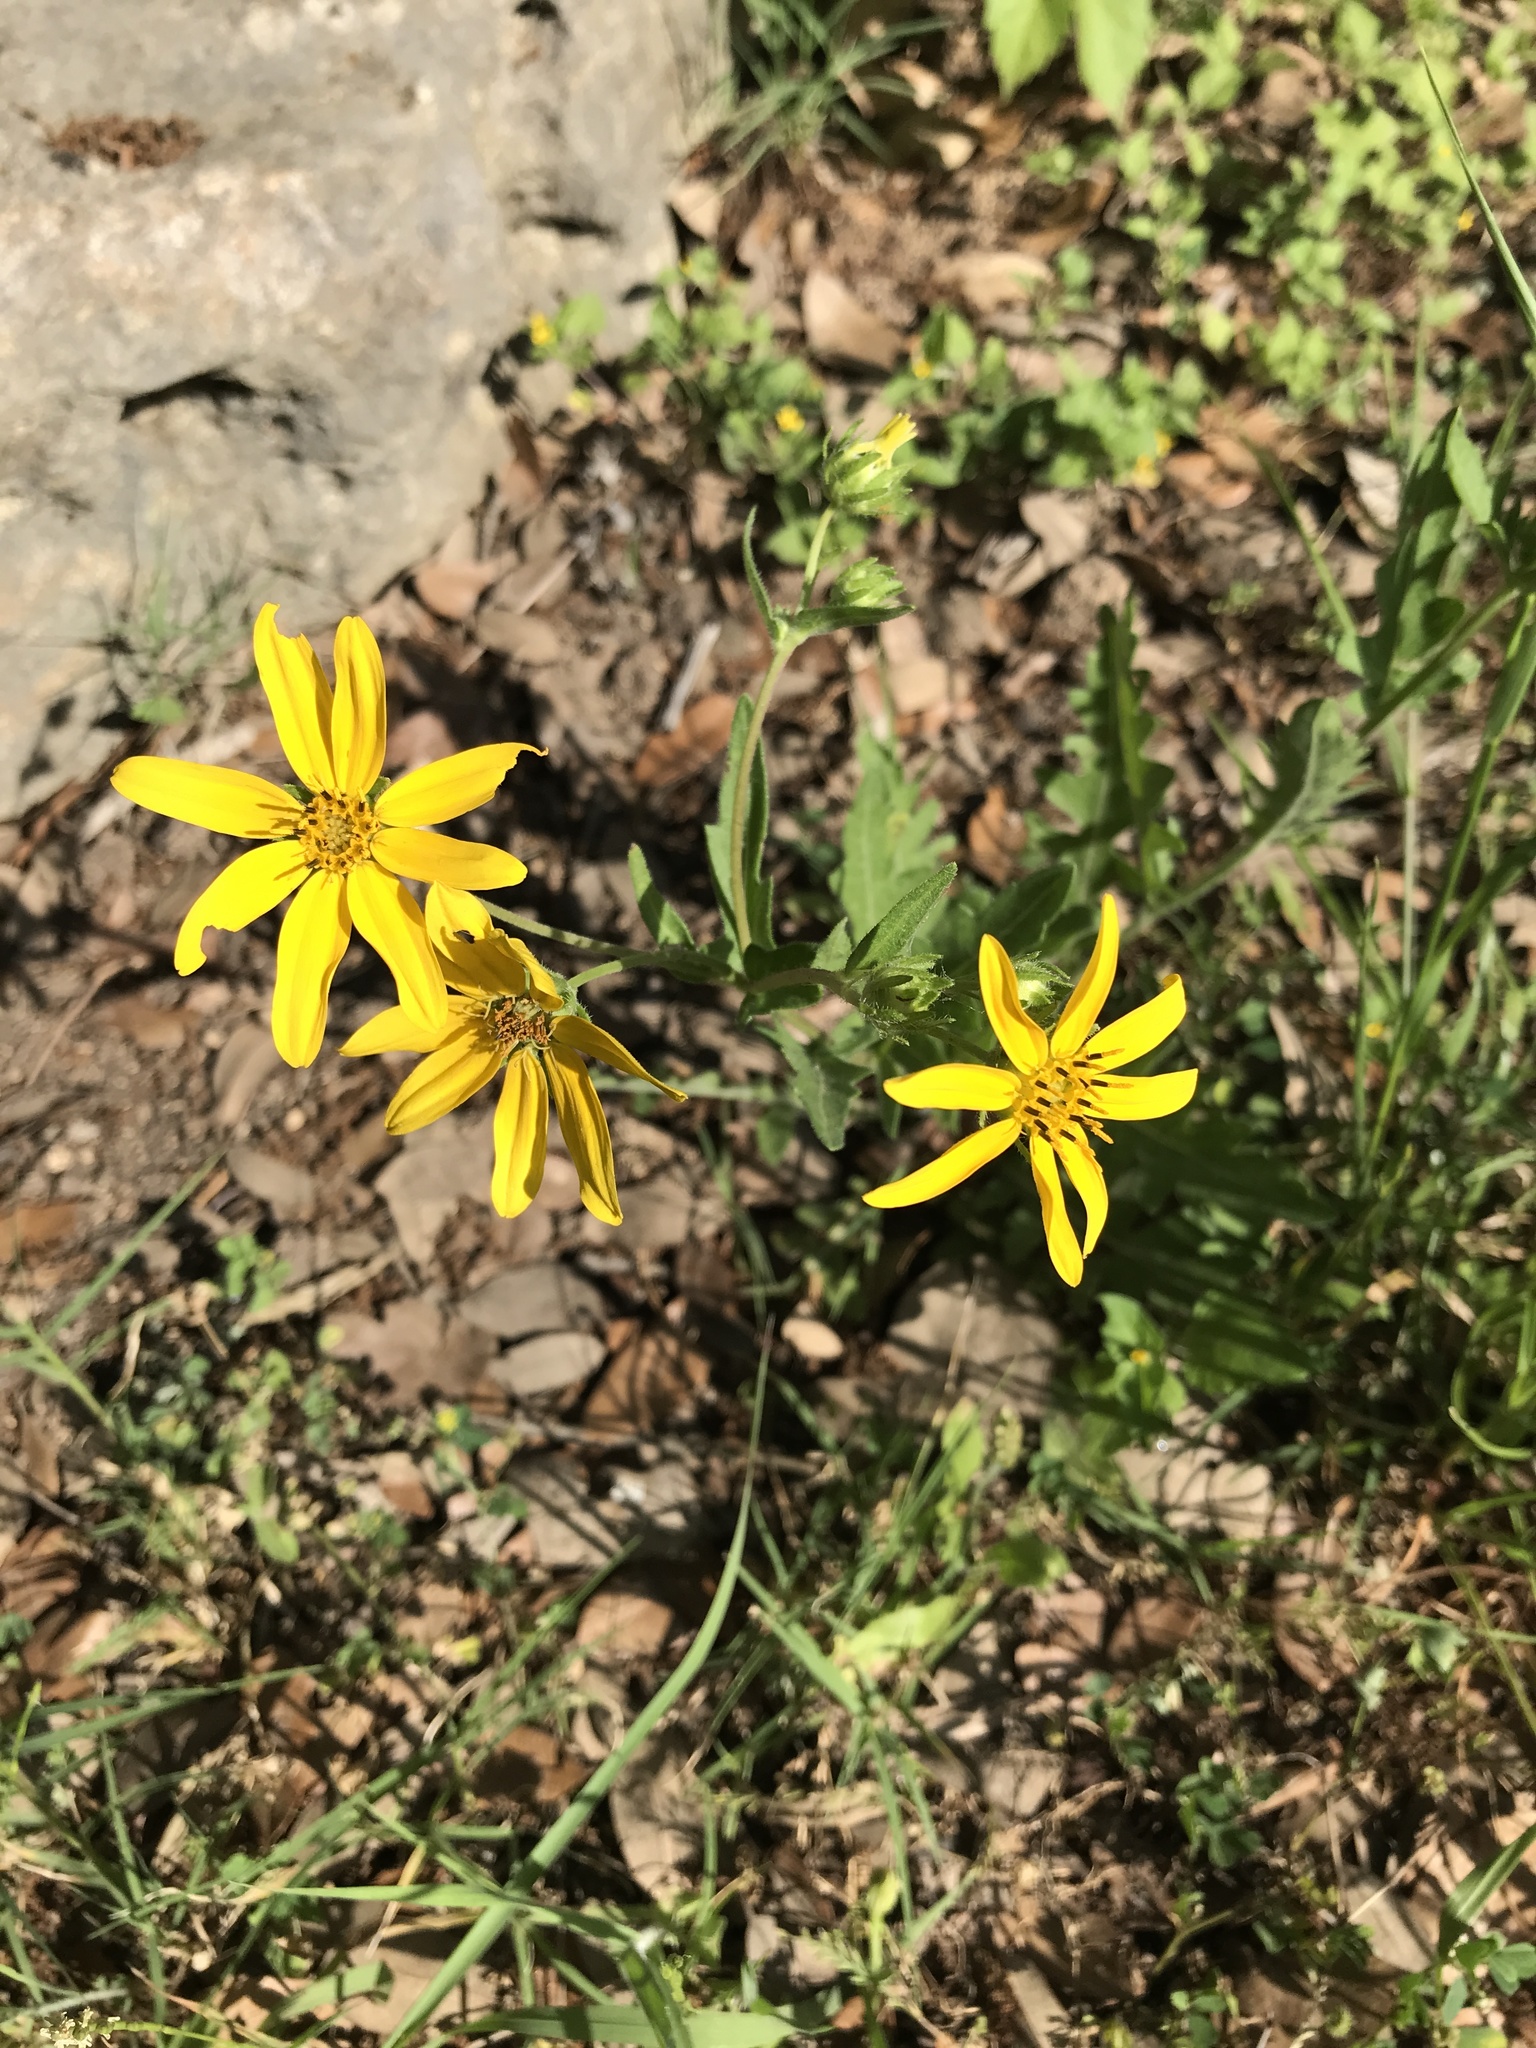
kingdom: Plantae
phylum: Tracheophyta
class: Magnoliopsida
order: Asterales
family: Asteraceae
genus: Engelmannia
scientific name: Engelmannia peristenia
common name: Engelmann's daisy
